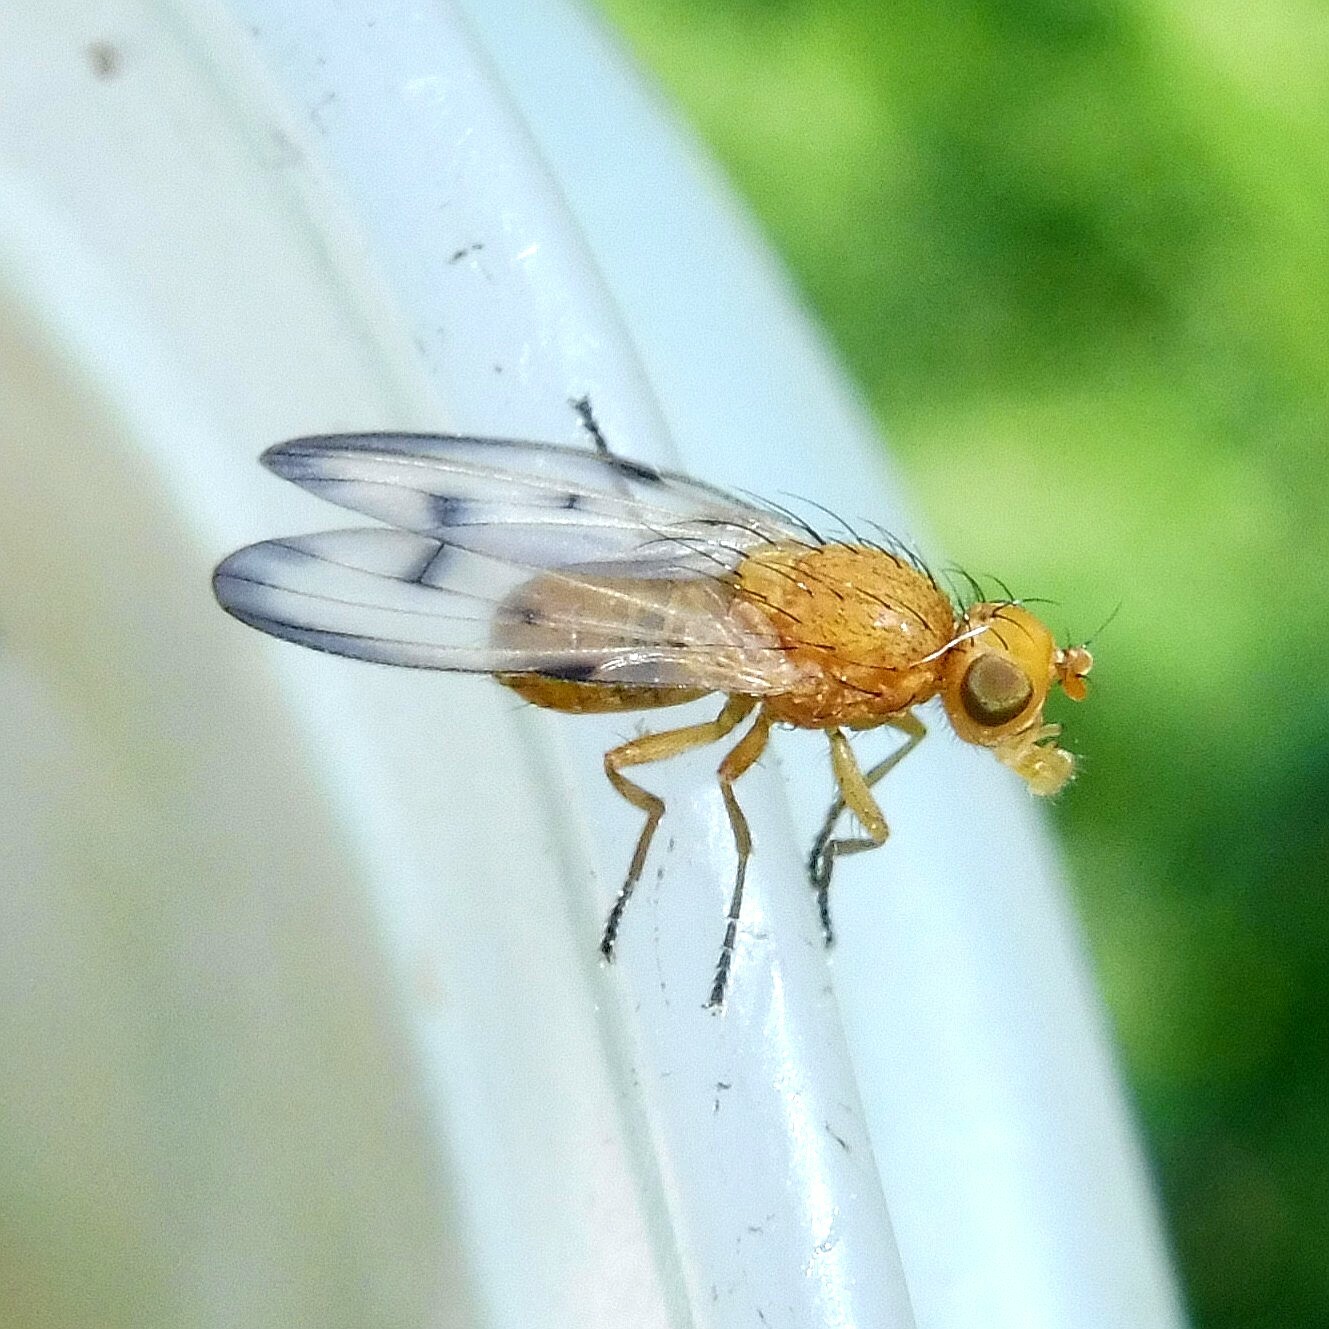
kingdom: Animalia
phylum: Arthropoda
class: Insecta
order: Diptera
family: Pallopteridae
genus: Toxonevra
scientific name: Toxonevra quinquemaculata
